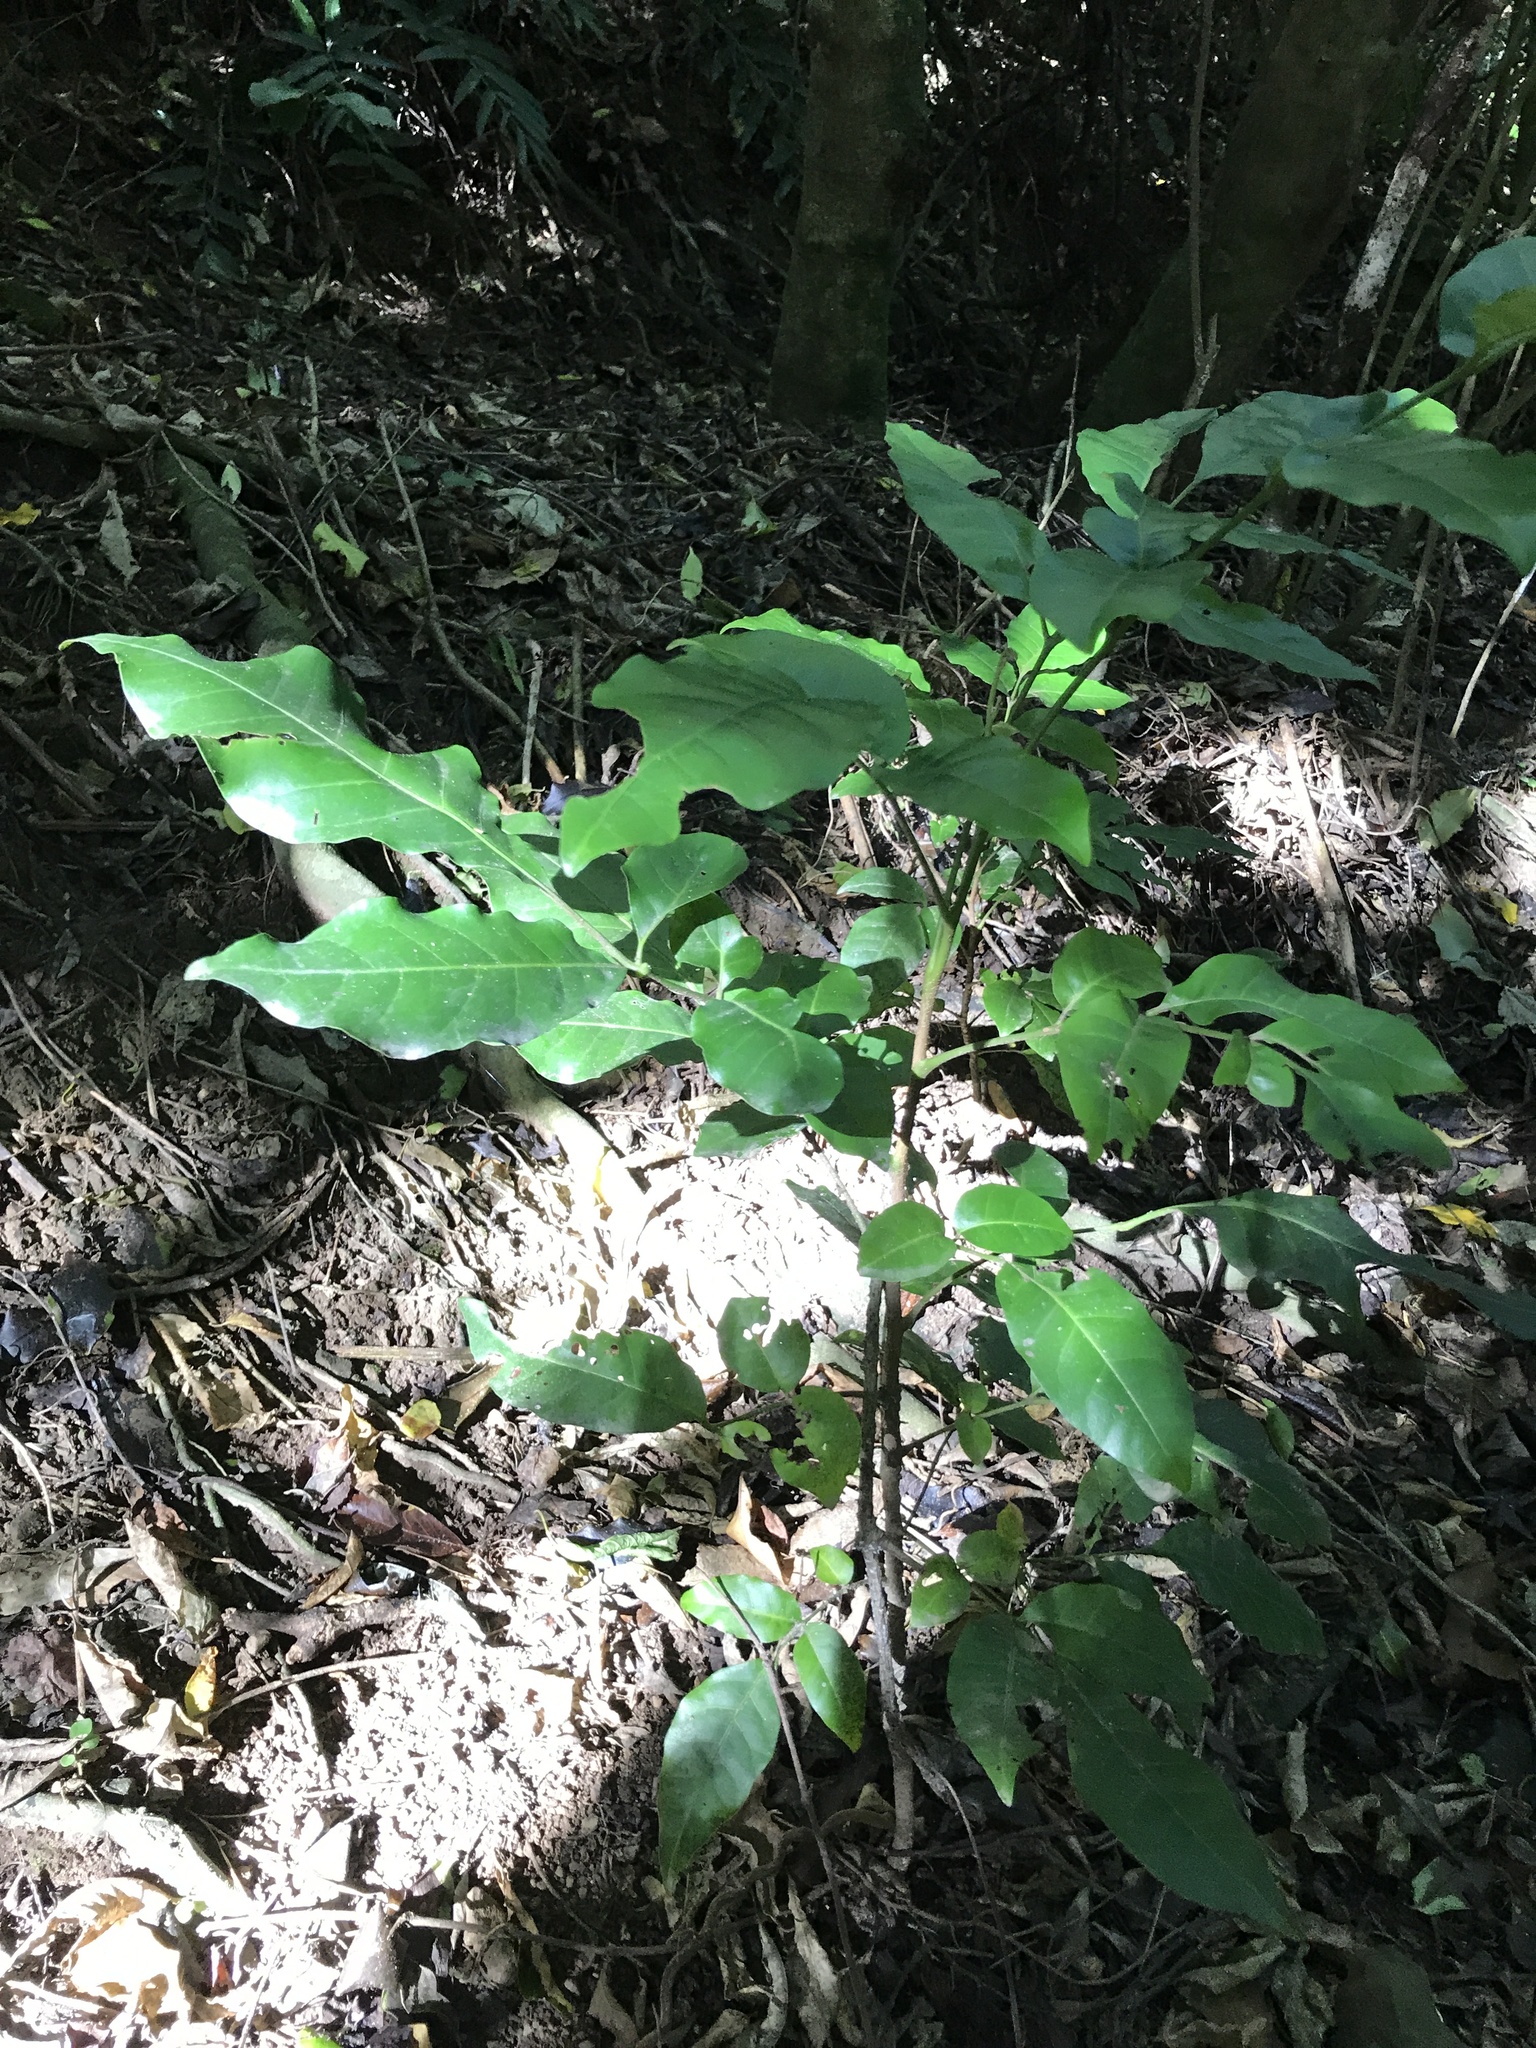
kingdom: Plantae
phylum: Tracheophyta
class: Magnoliopsida
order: Sapindales
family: Meliaceae
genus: Didymocheton
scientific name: Didymocheton spectabilis
